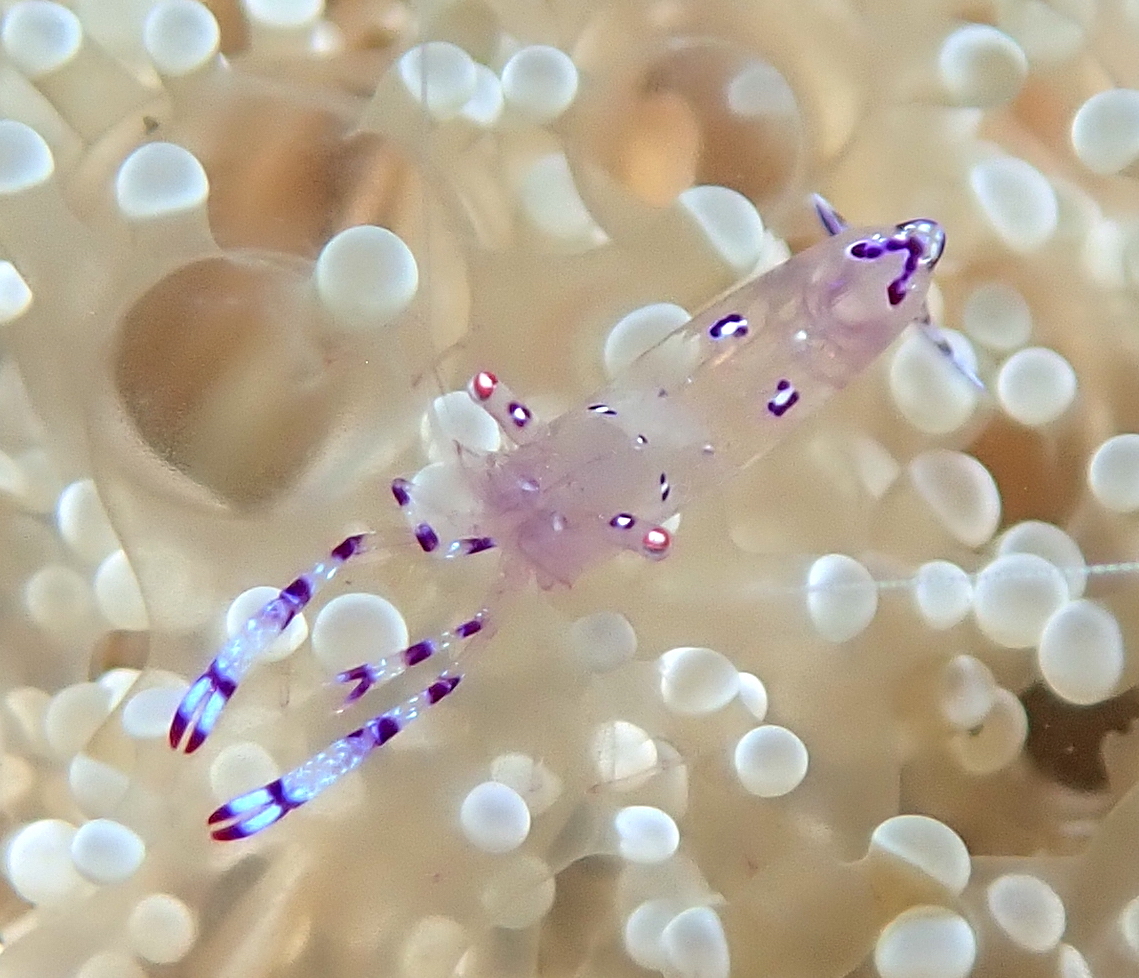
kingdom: Animalia
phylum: Arthropoda
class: Malacostraca
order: Decapoda
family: Palaemonidae
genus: Ancylomenes
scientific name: Ancylomenes sarasvati
